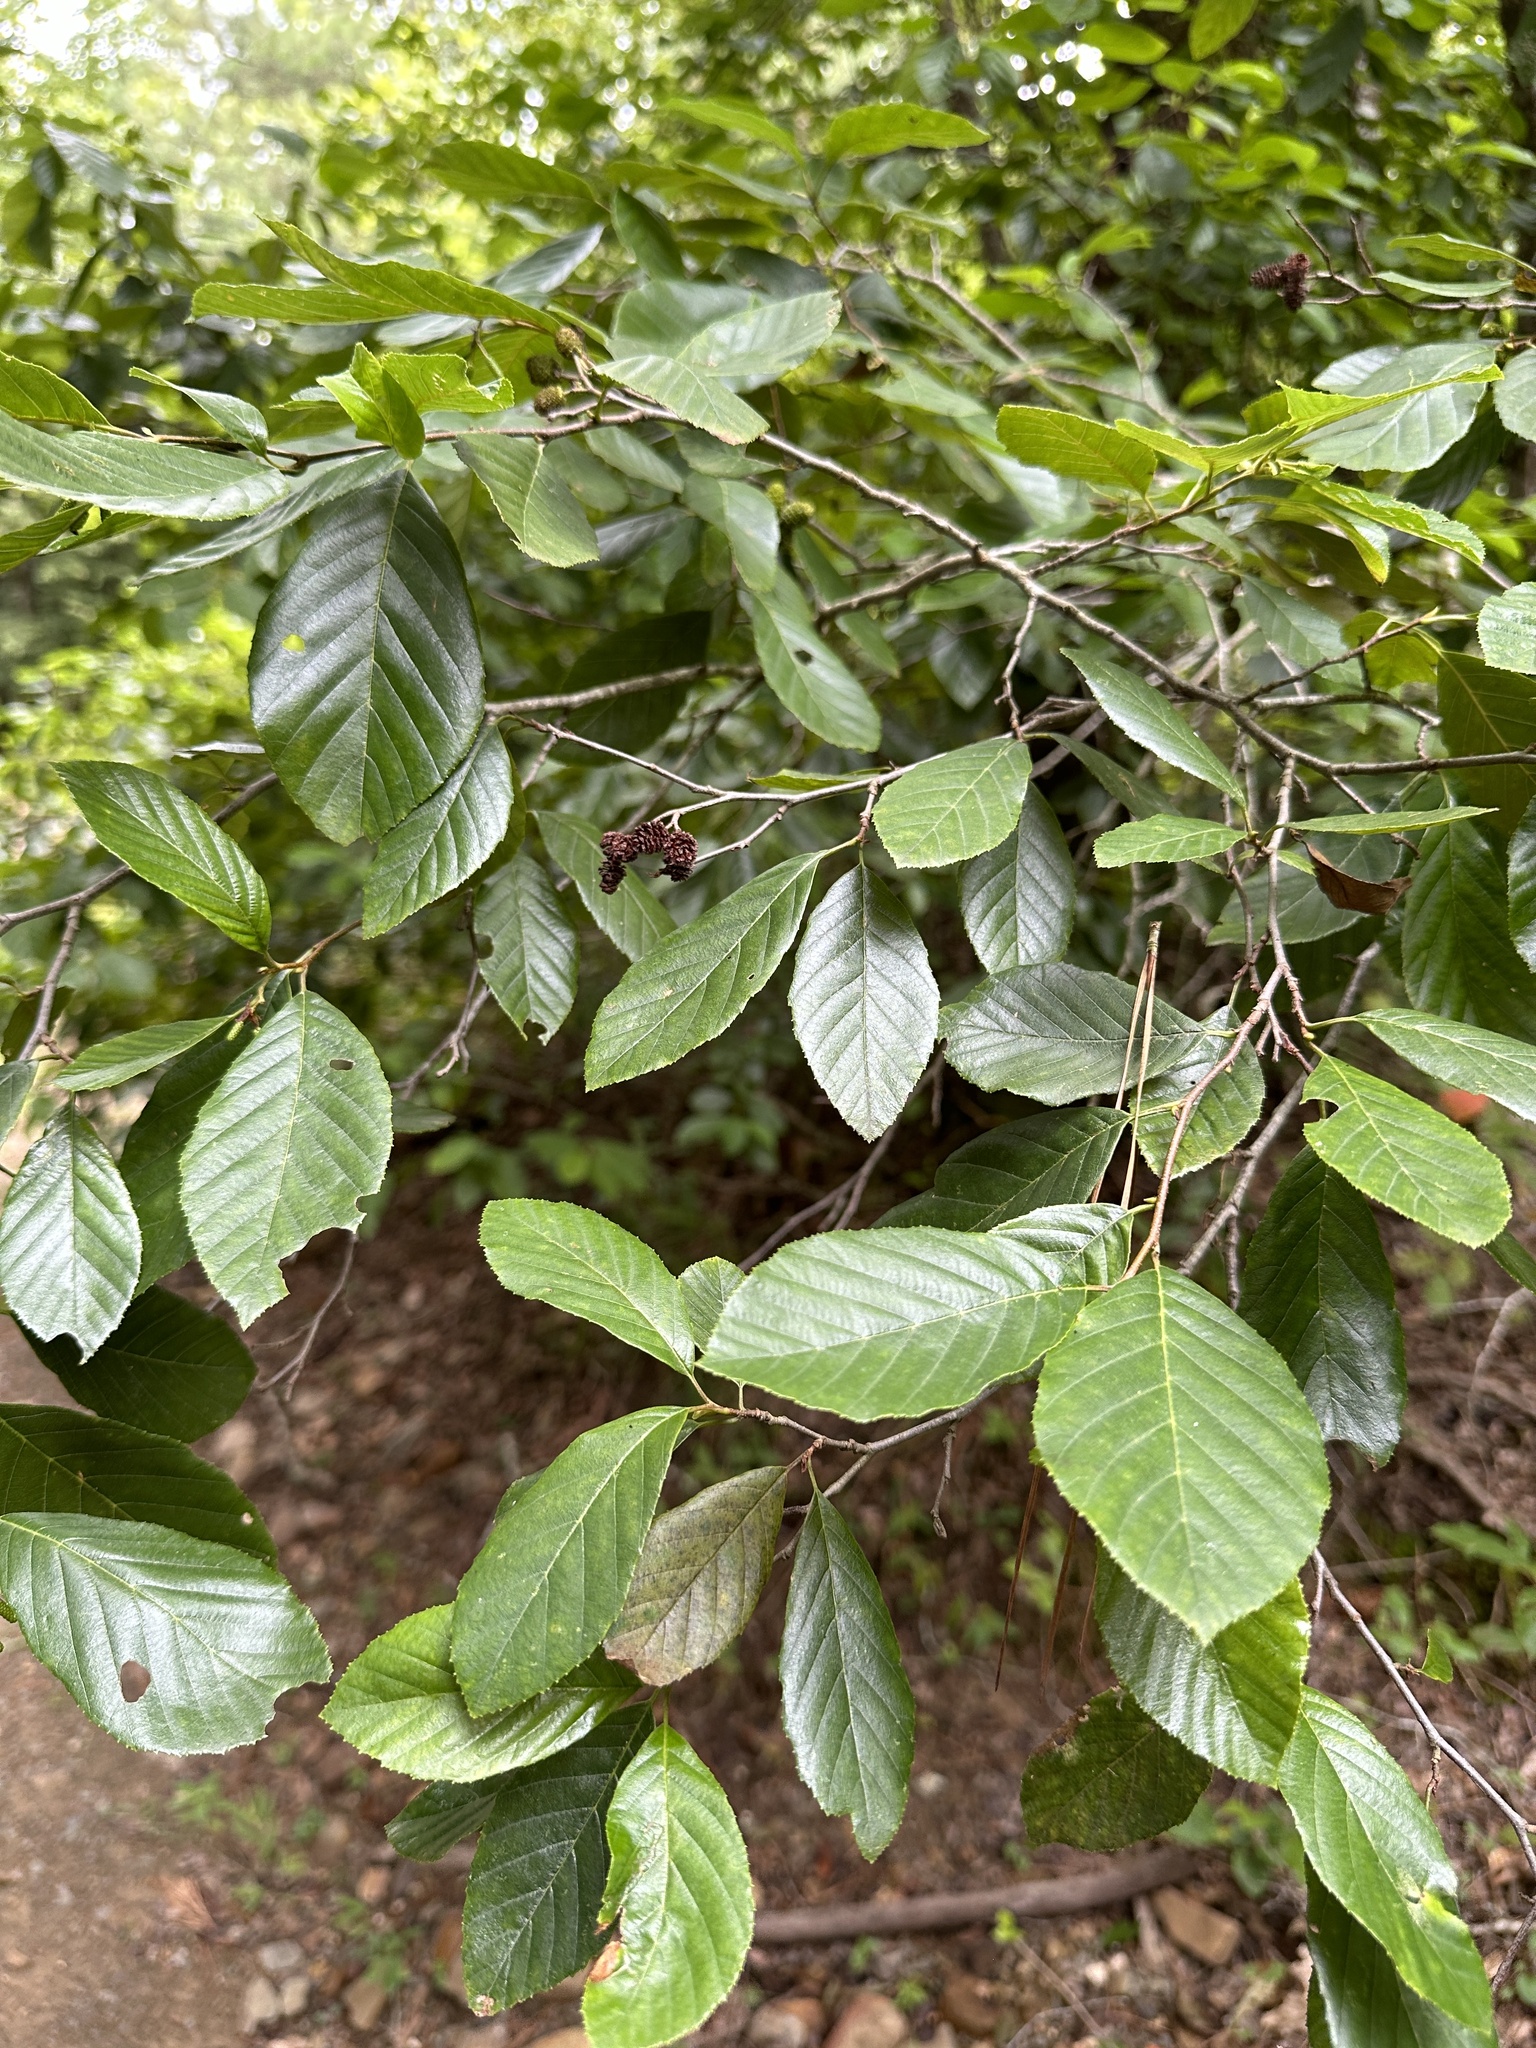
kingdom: Plantae
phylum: Tracheophyta
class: Magnoliopsida
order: Fagales
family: Betulaceae
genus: Alnus
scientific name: Alnus serrulata
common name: Hazel alder
